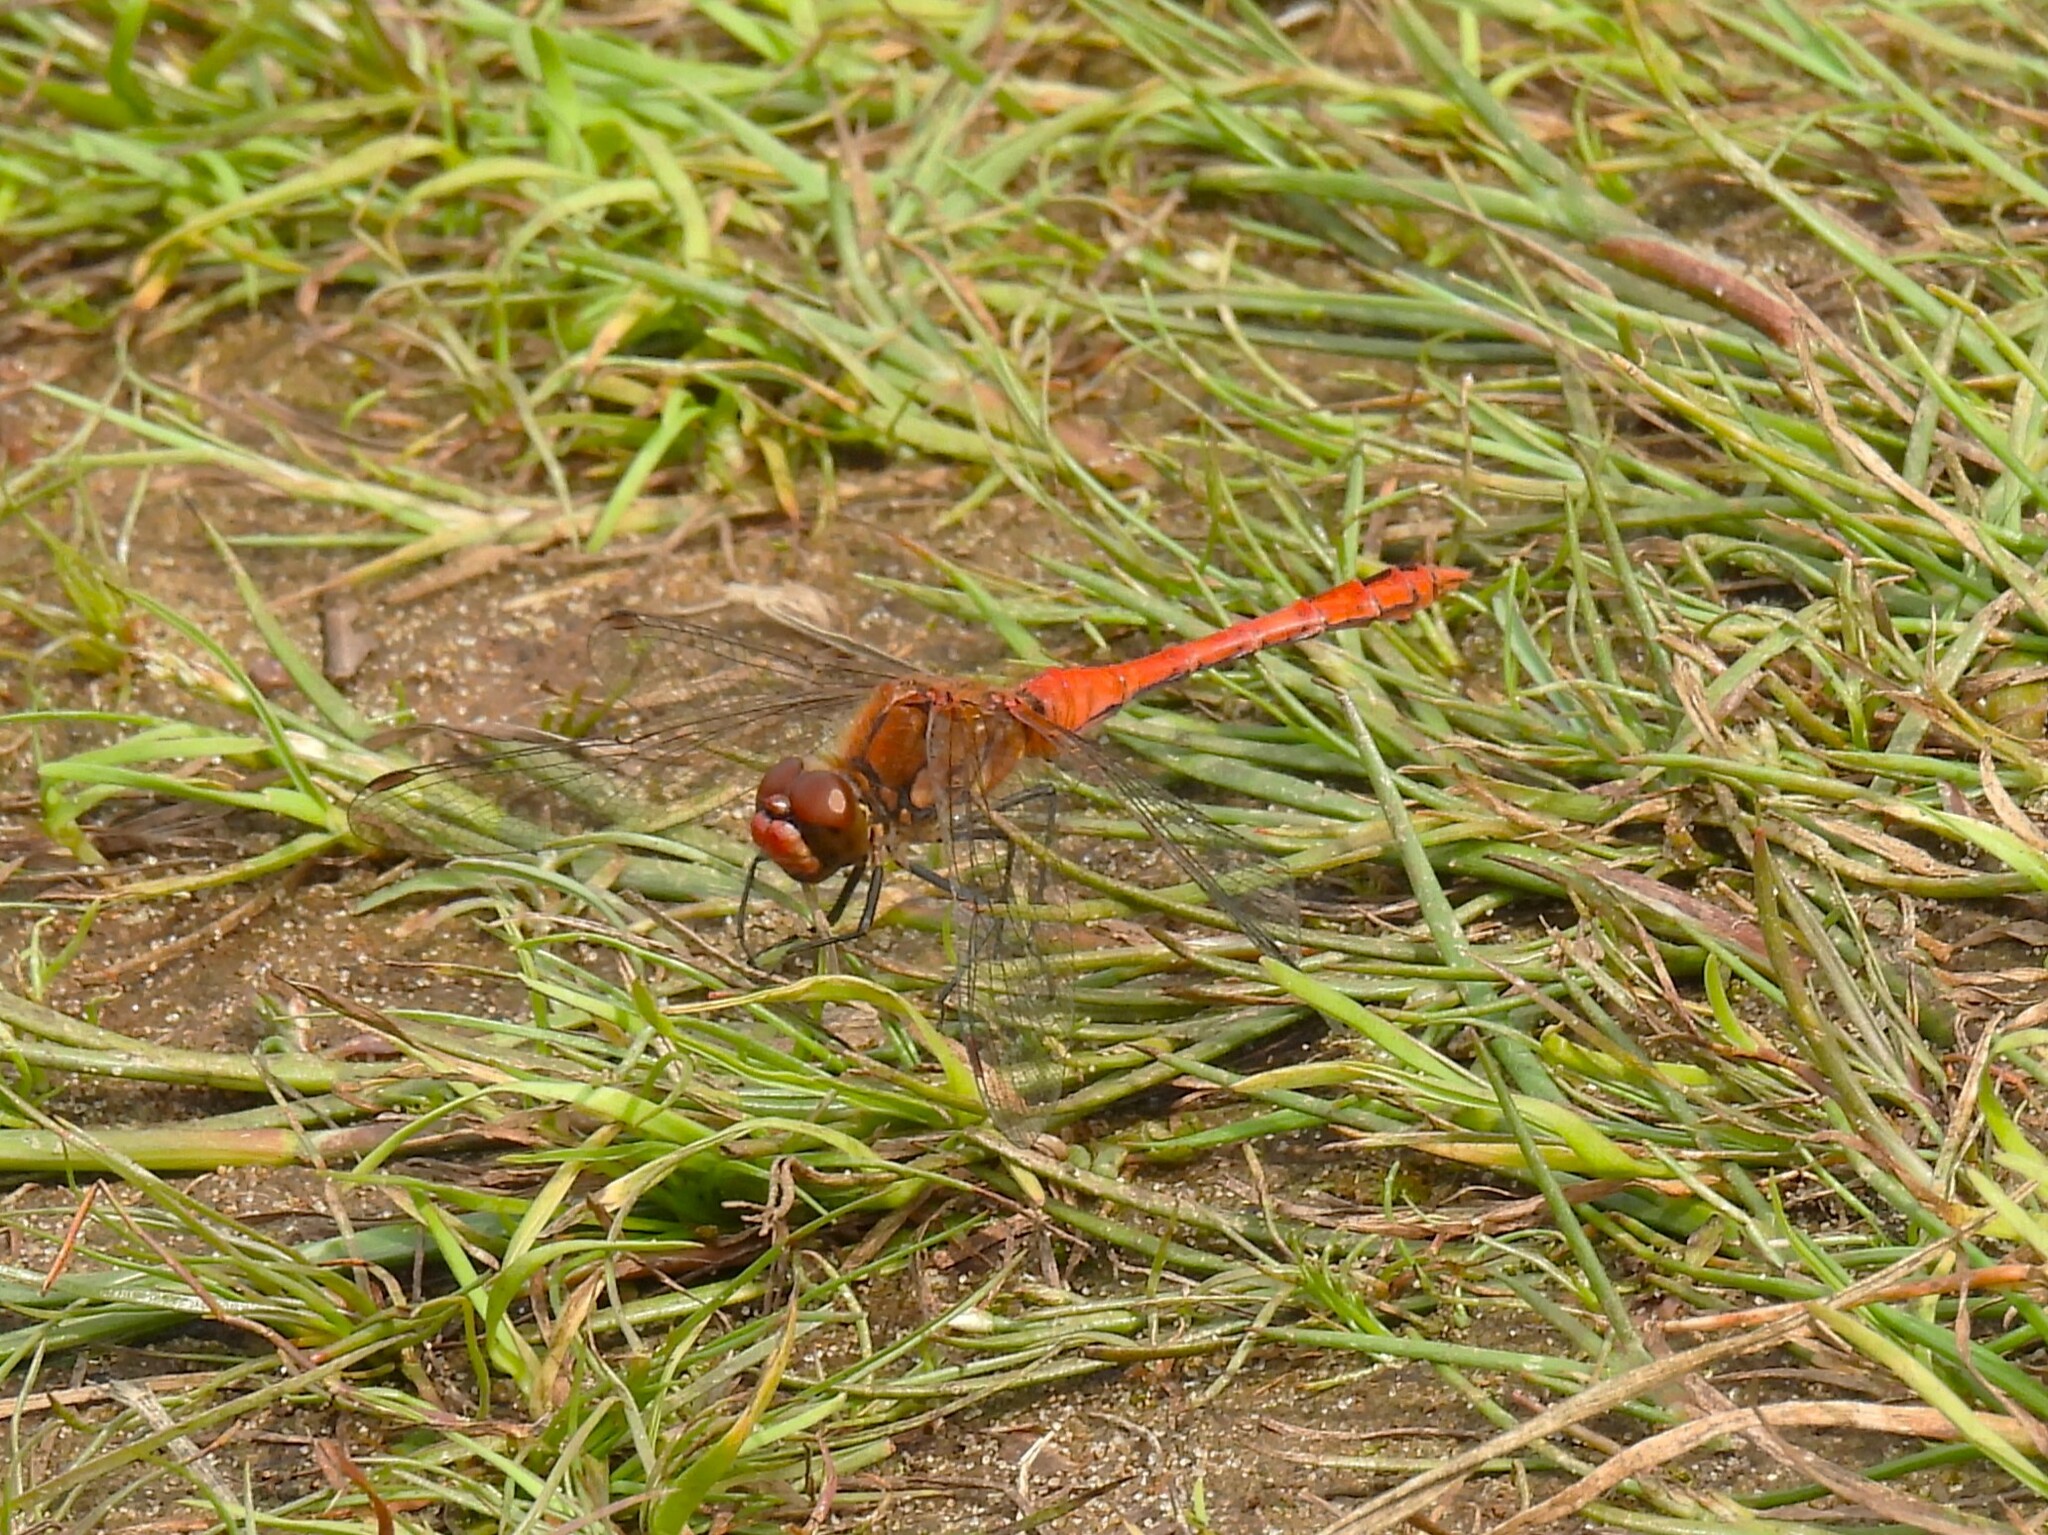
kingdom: Animalia
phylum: Arthropoda
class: Insecta
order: Odonata
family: Libellulidae
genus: Sympetrum
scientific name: Sympetrum sanguineum
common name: Ruddy darter
